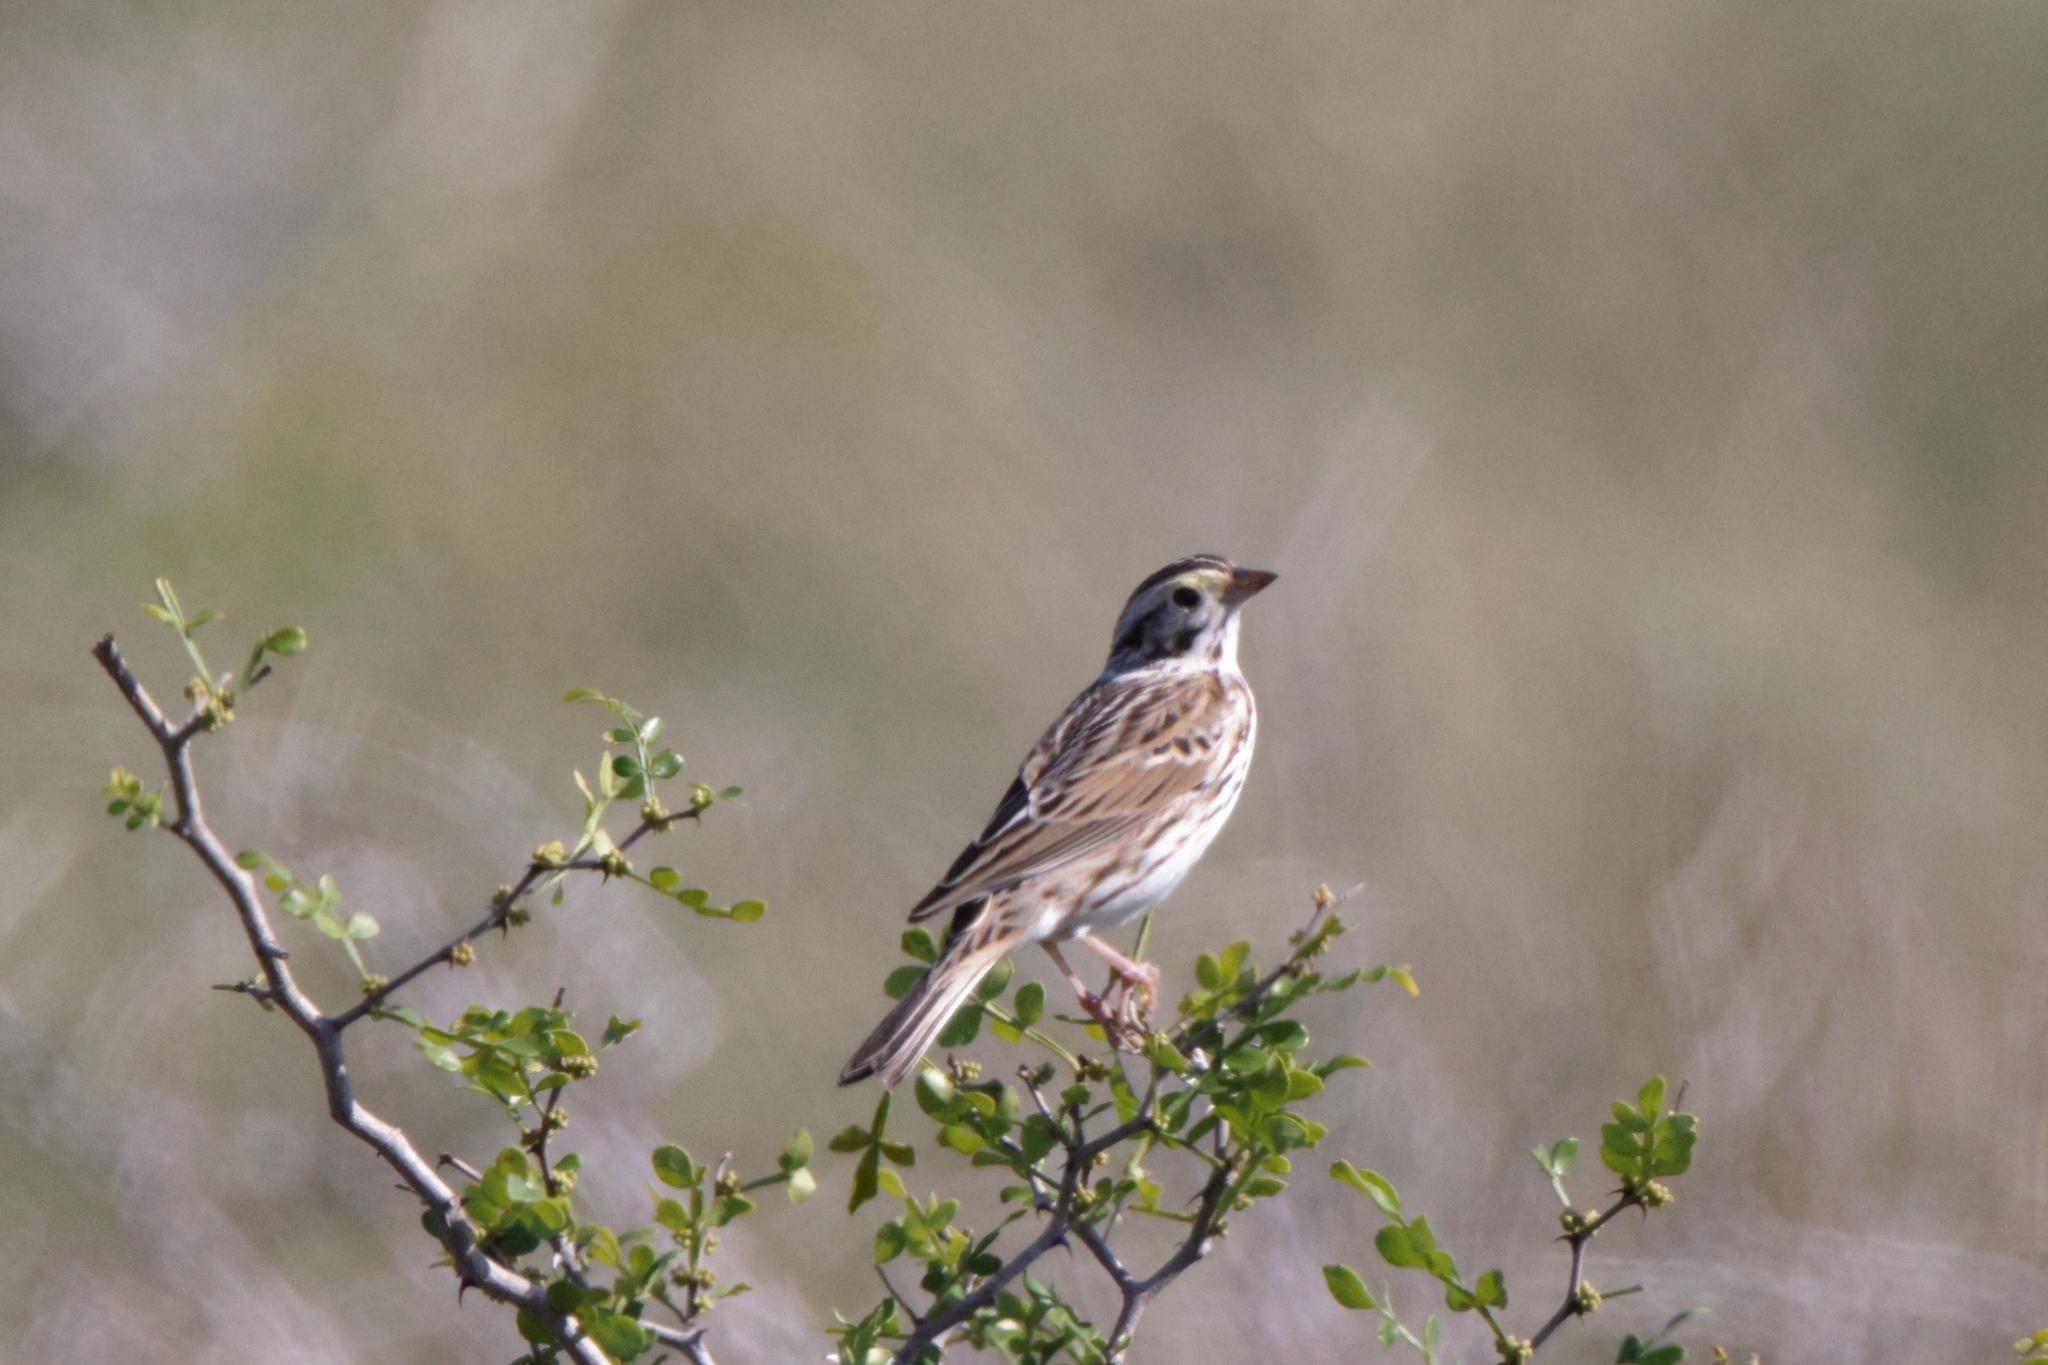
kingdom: Animalia
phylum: Chordata
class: Aves
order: Passeriformes
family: Passerellidae
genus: Passerculus
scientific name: Passerculus sandwichensis
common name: Savannah sparrow
